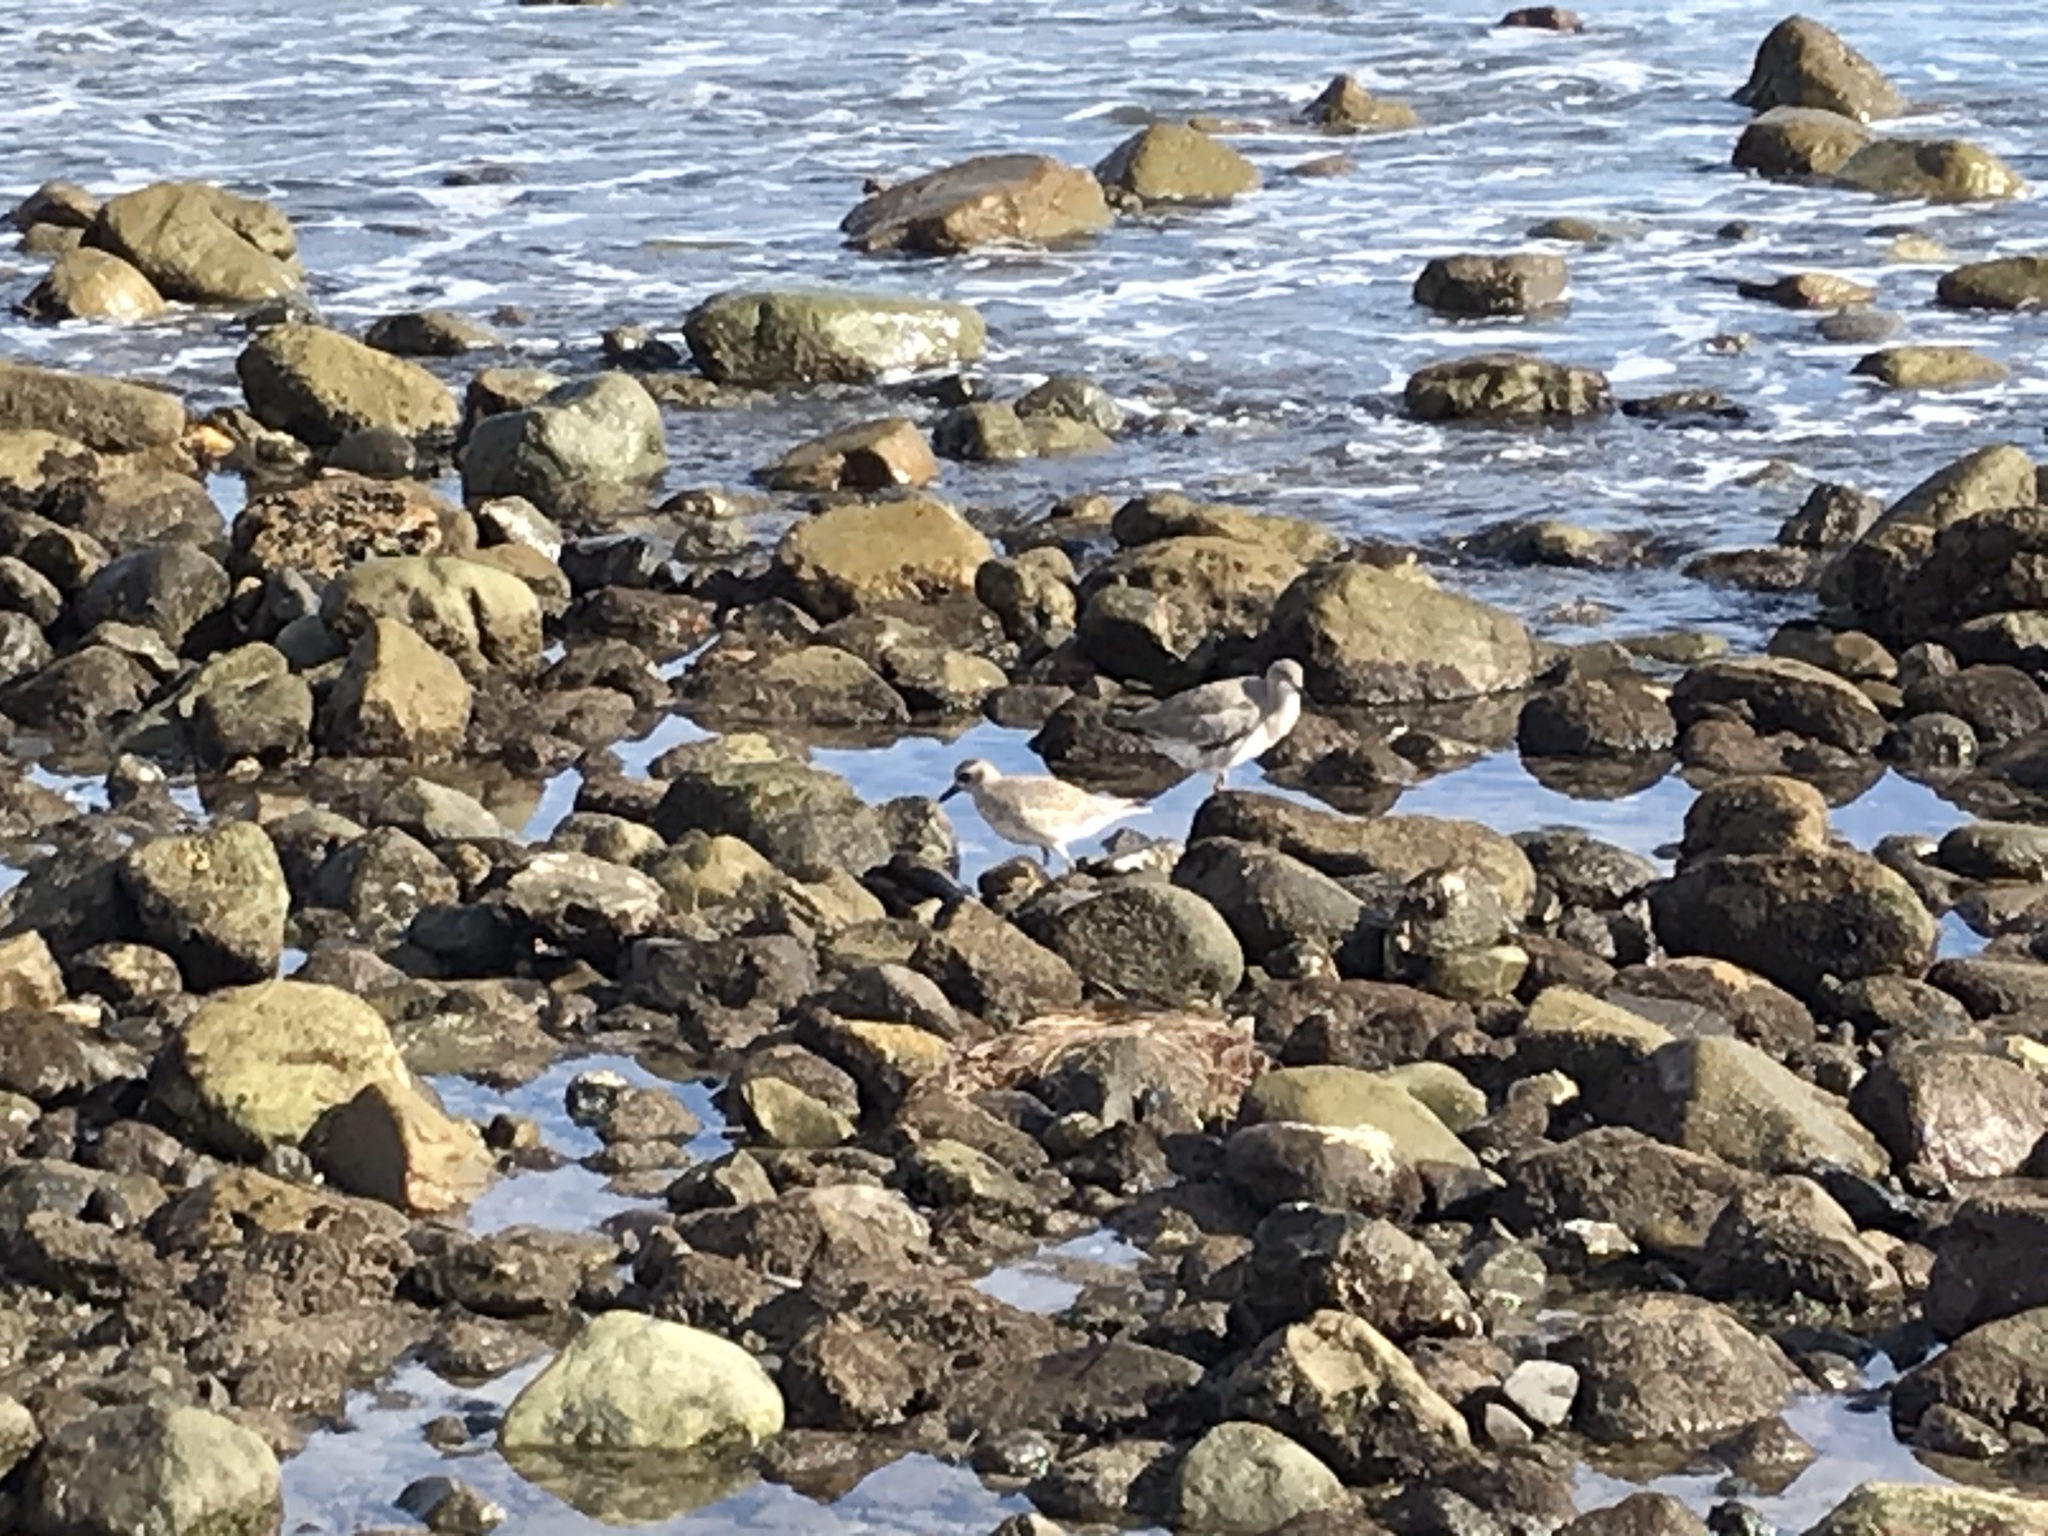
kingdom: Animalia
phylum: Chordata
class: Aves
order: Charadriiformes
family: Charadriidae
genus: Pluvialis
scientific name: Pluvialis squatarola
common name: Grey plover
